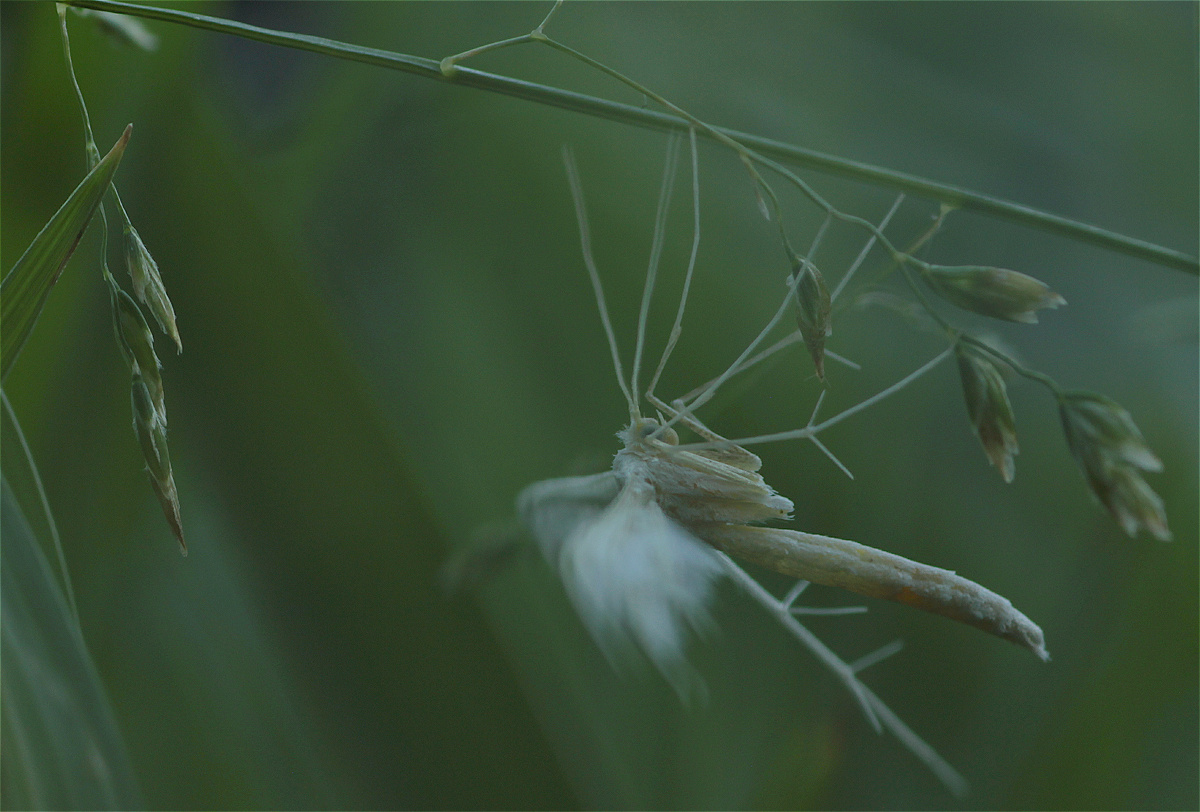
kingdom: Animalia
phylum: Arthropoda
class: Insecta
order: Lepidoptera
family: Pterophoridae
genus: Pterophorus
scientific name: Pterophorus pentadactyla
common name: White plume moth
